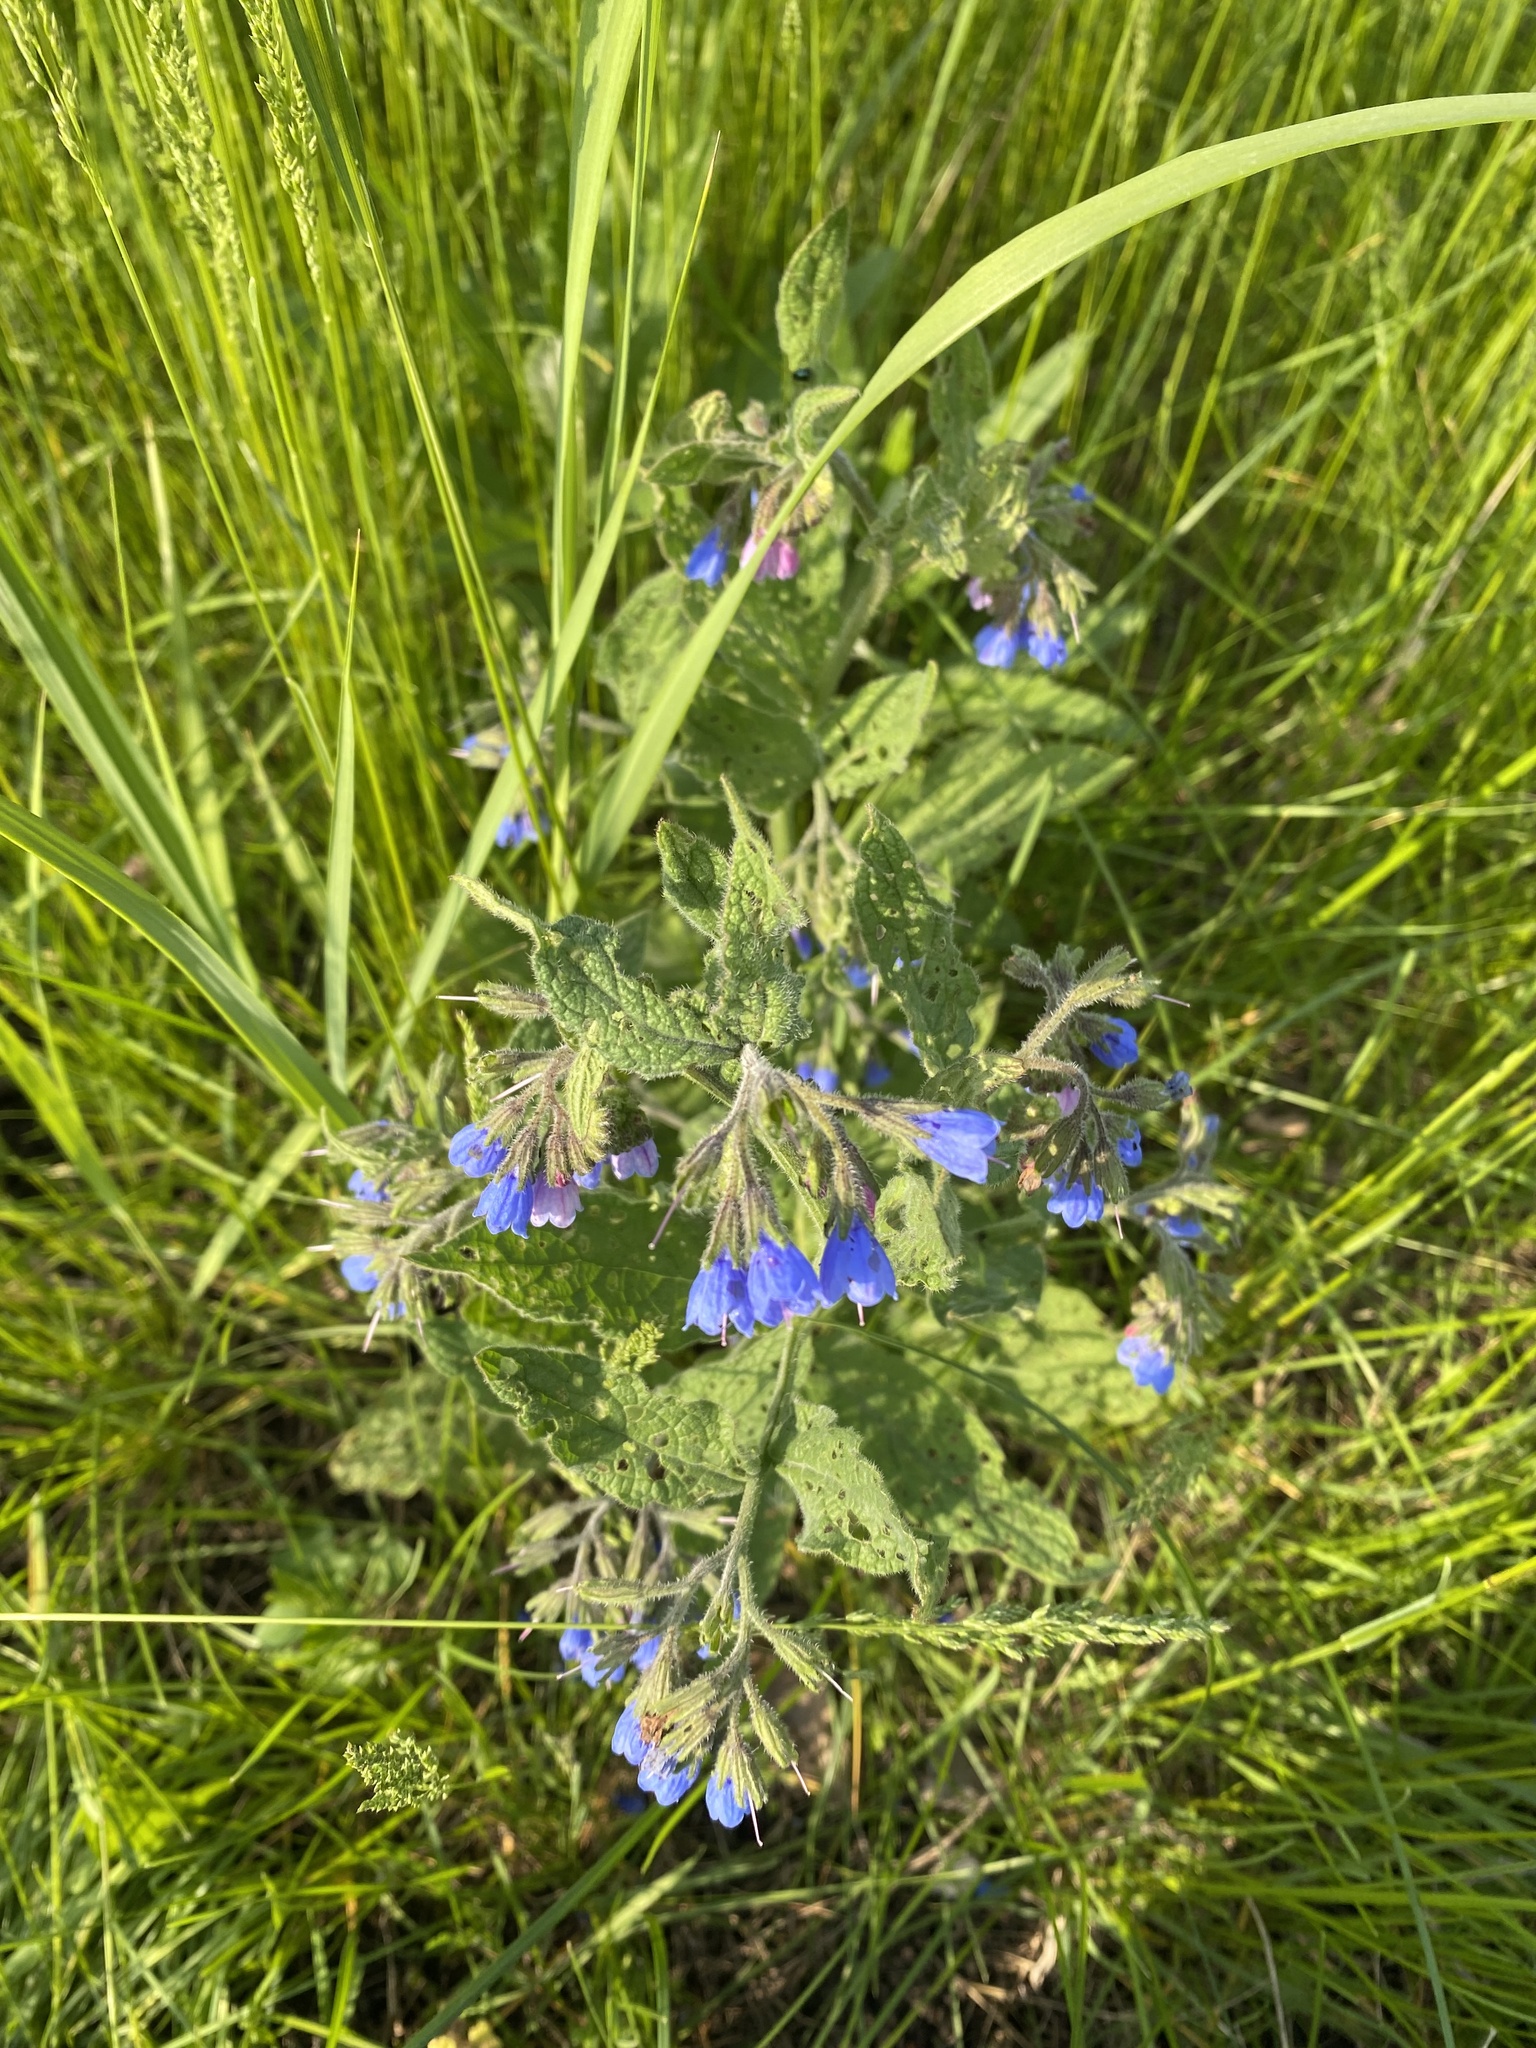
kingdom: Plantae
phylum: Tracheophyta
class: Magnoliopsida
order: Boraginales
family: Boraginaceae
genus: Symphytum
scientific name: Symphytum asperum
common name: Prickly comfrey
